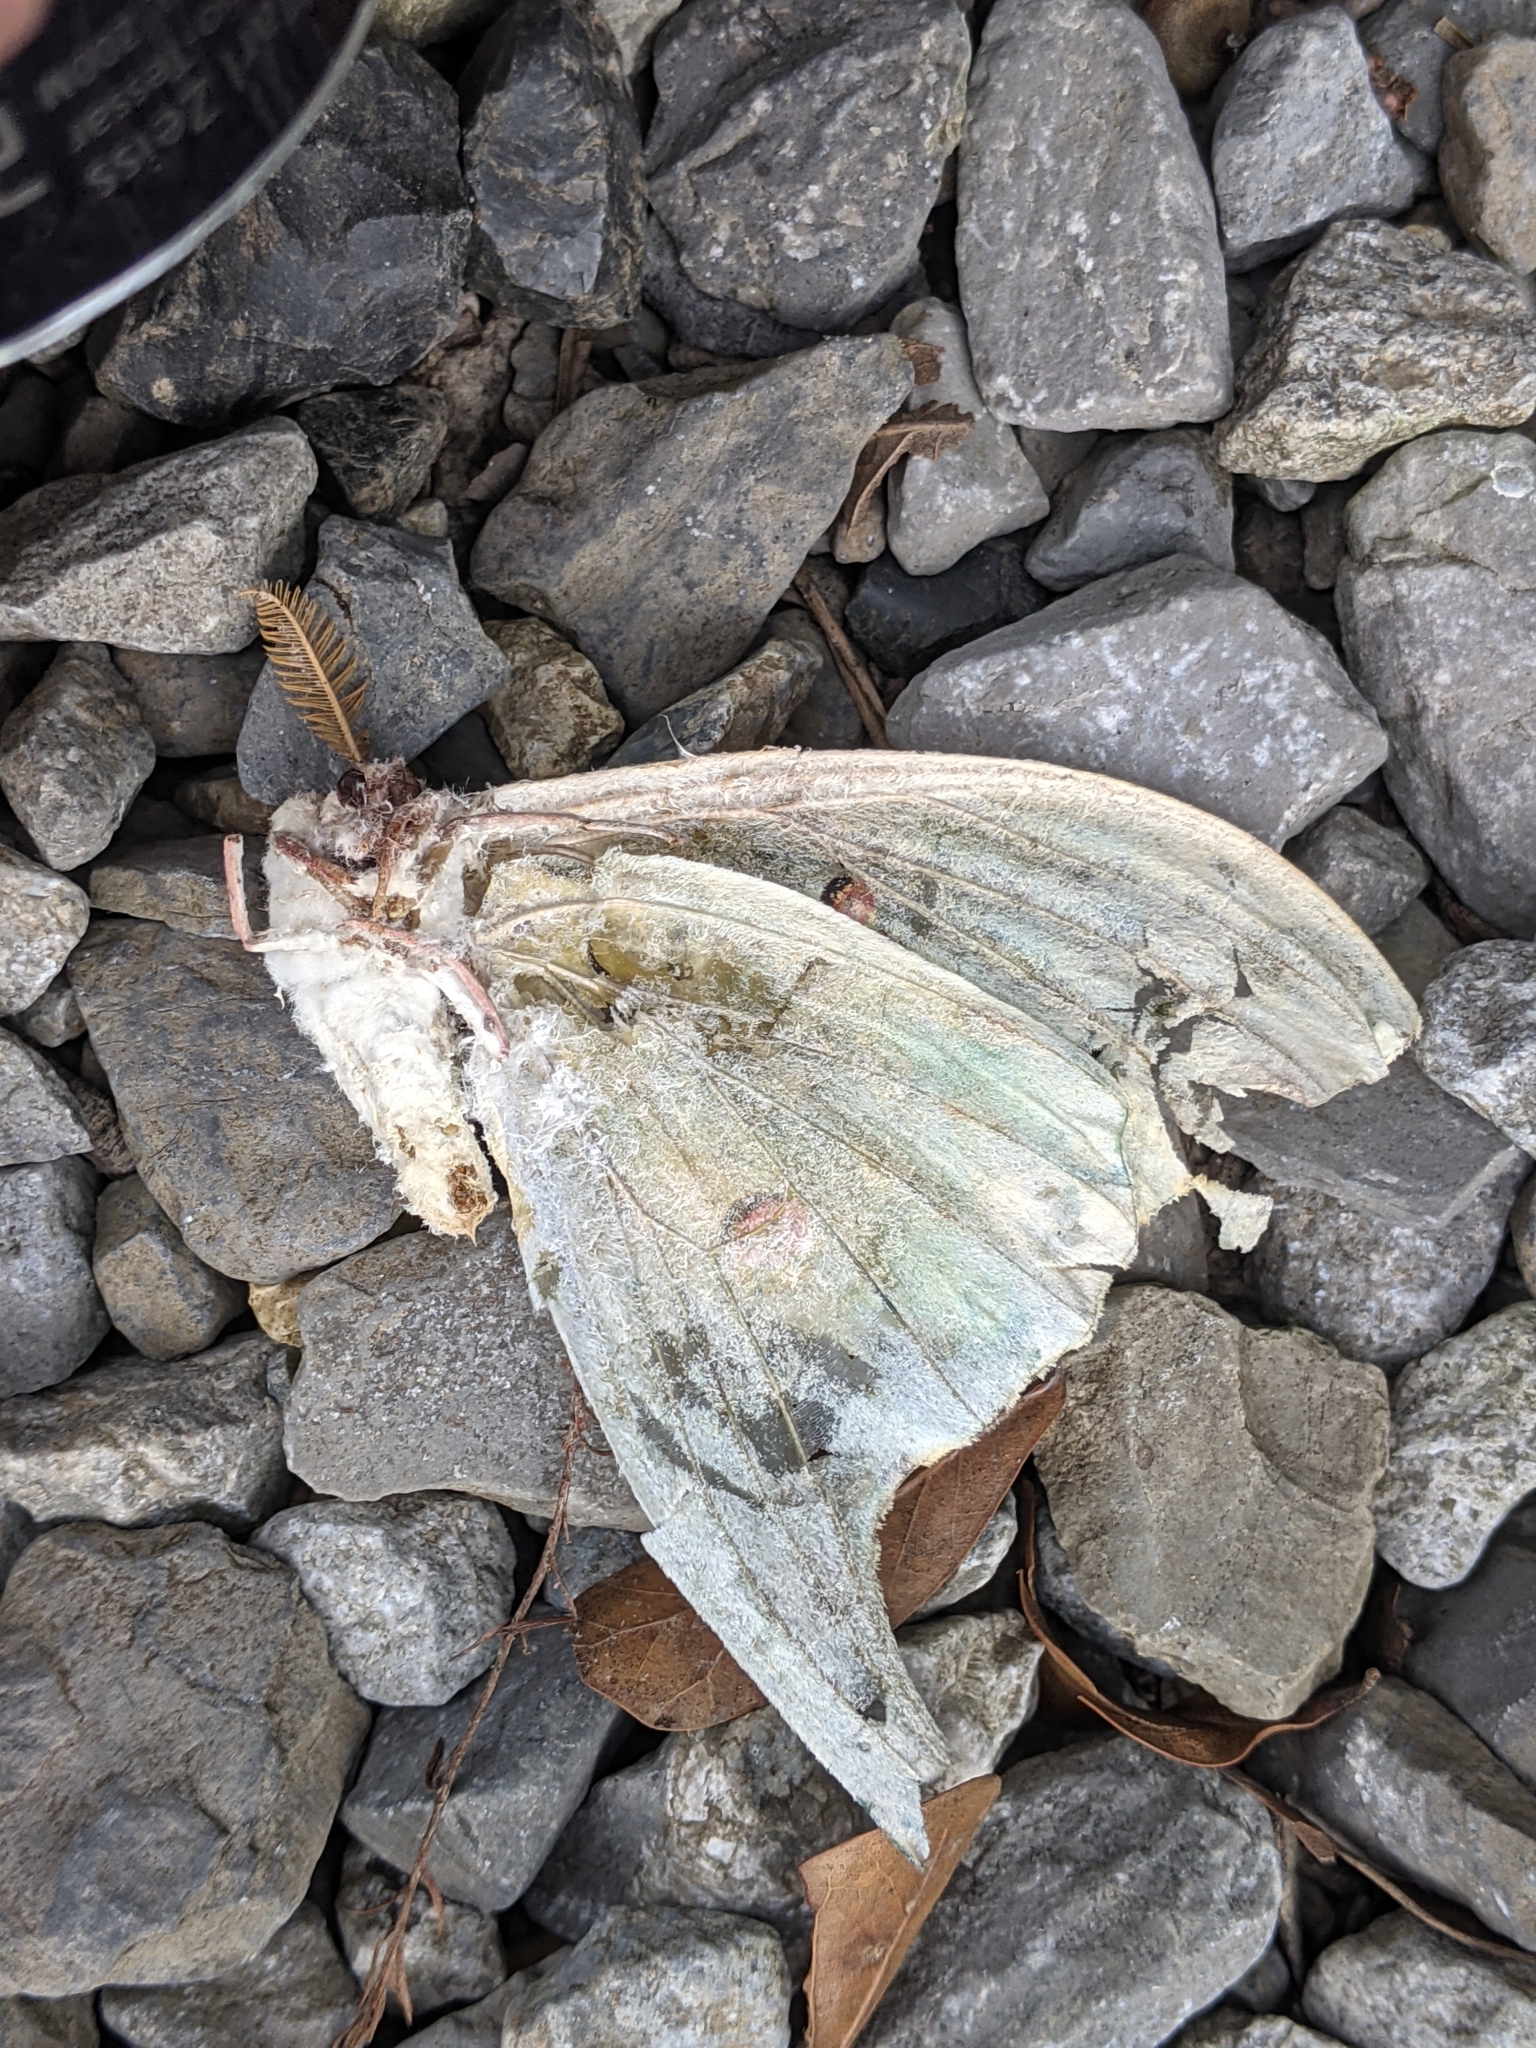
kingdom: Animalia
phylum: Arthropoda
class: Insecta
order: Lepidoptera
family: Saturniidae
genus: Actias
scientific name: Actias luna
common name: Luna moth
